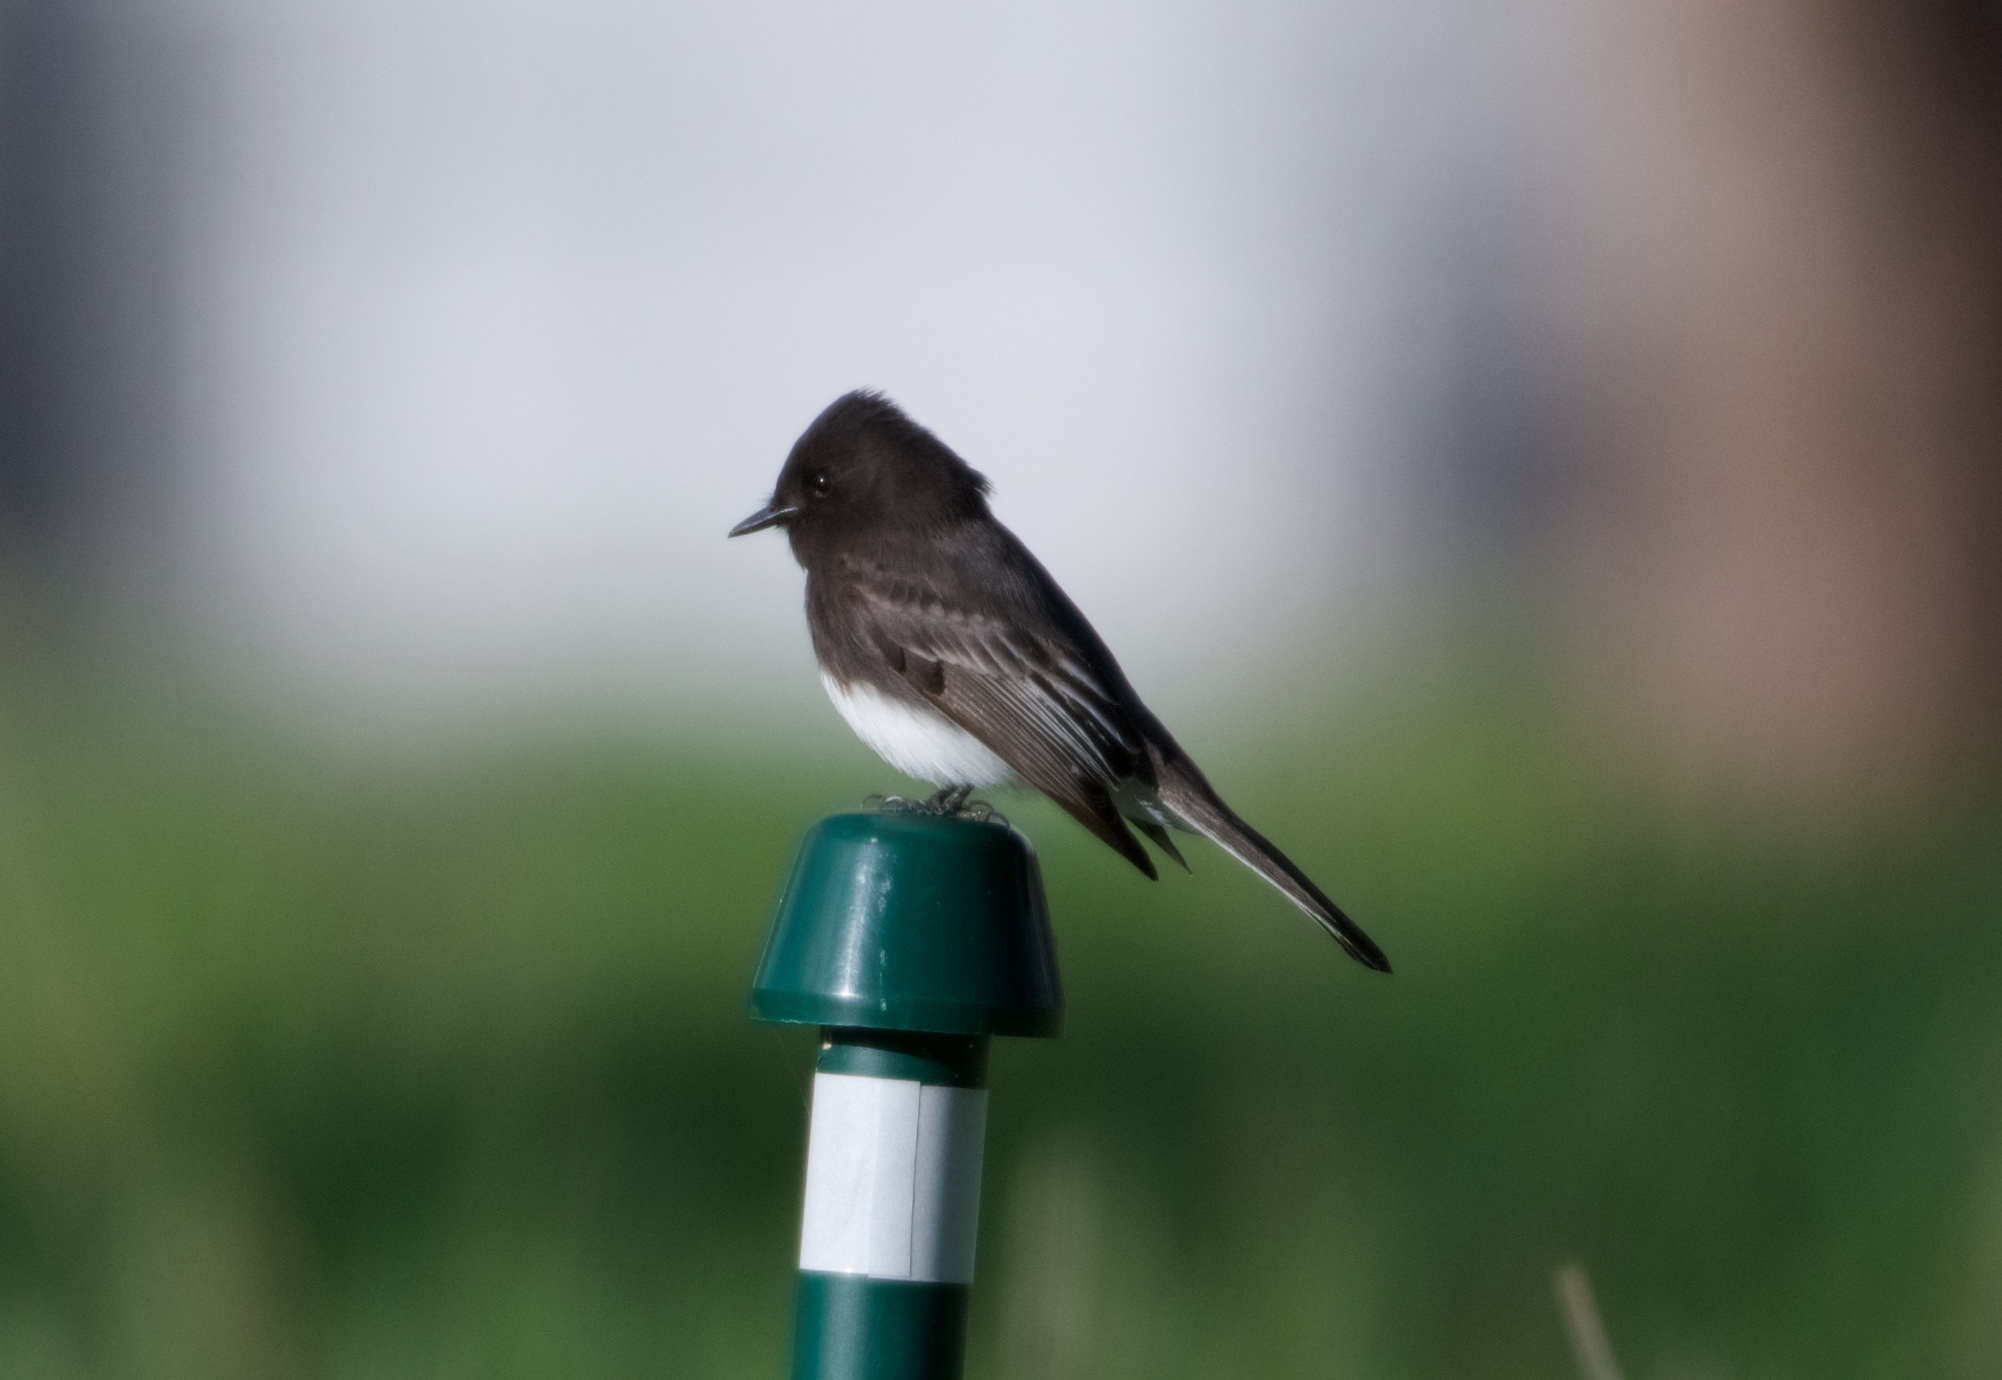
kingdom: Animalia
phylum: Chordata
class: Aves
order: Passeriformes
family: Tyrannidae
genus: Sayornis
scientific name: Sayornis nigricans
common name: Black phoebe
